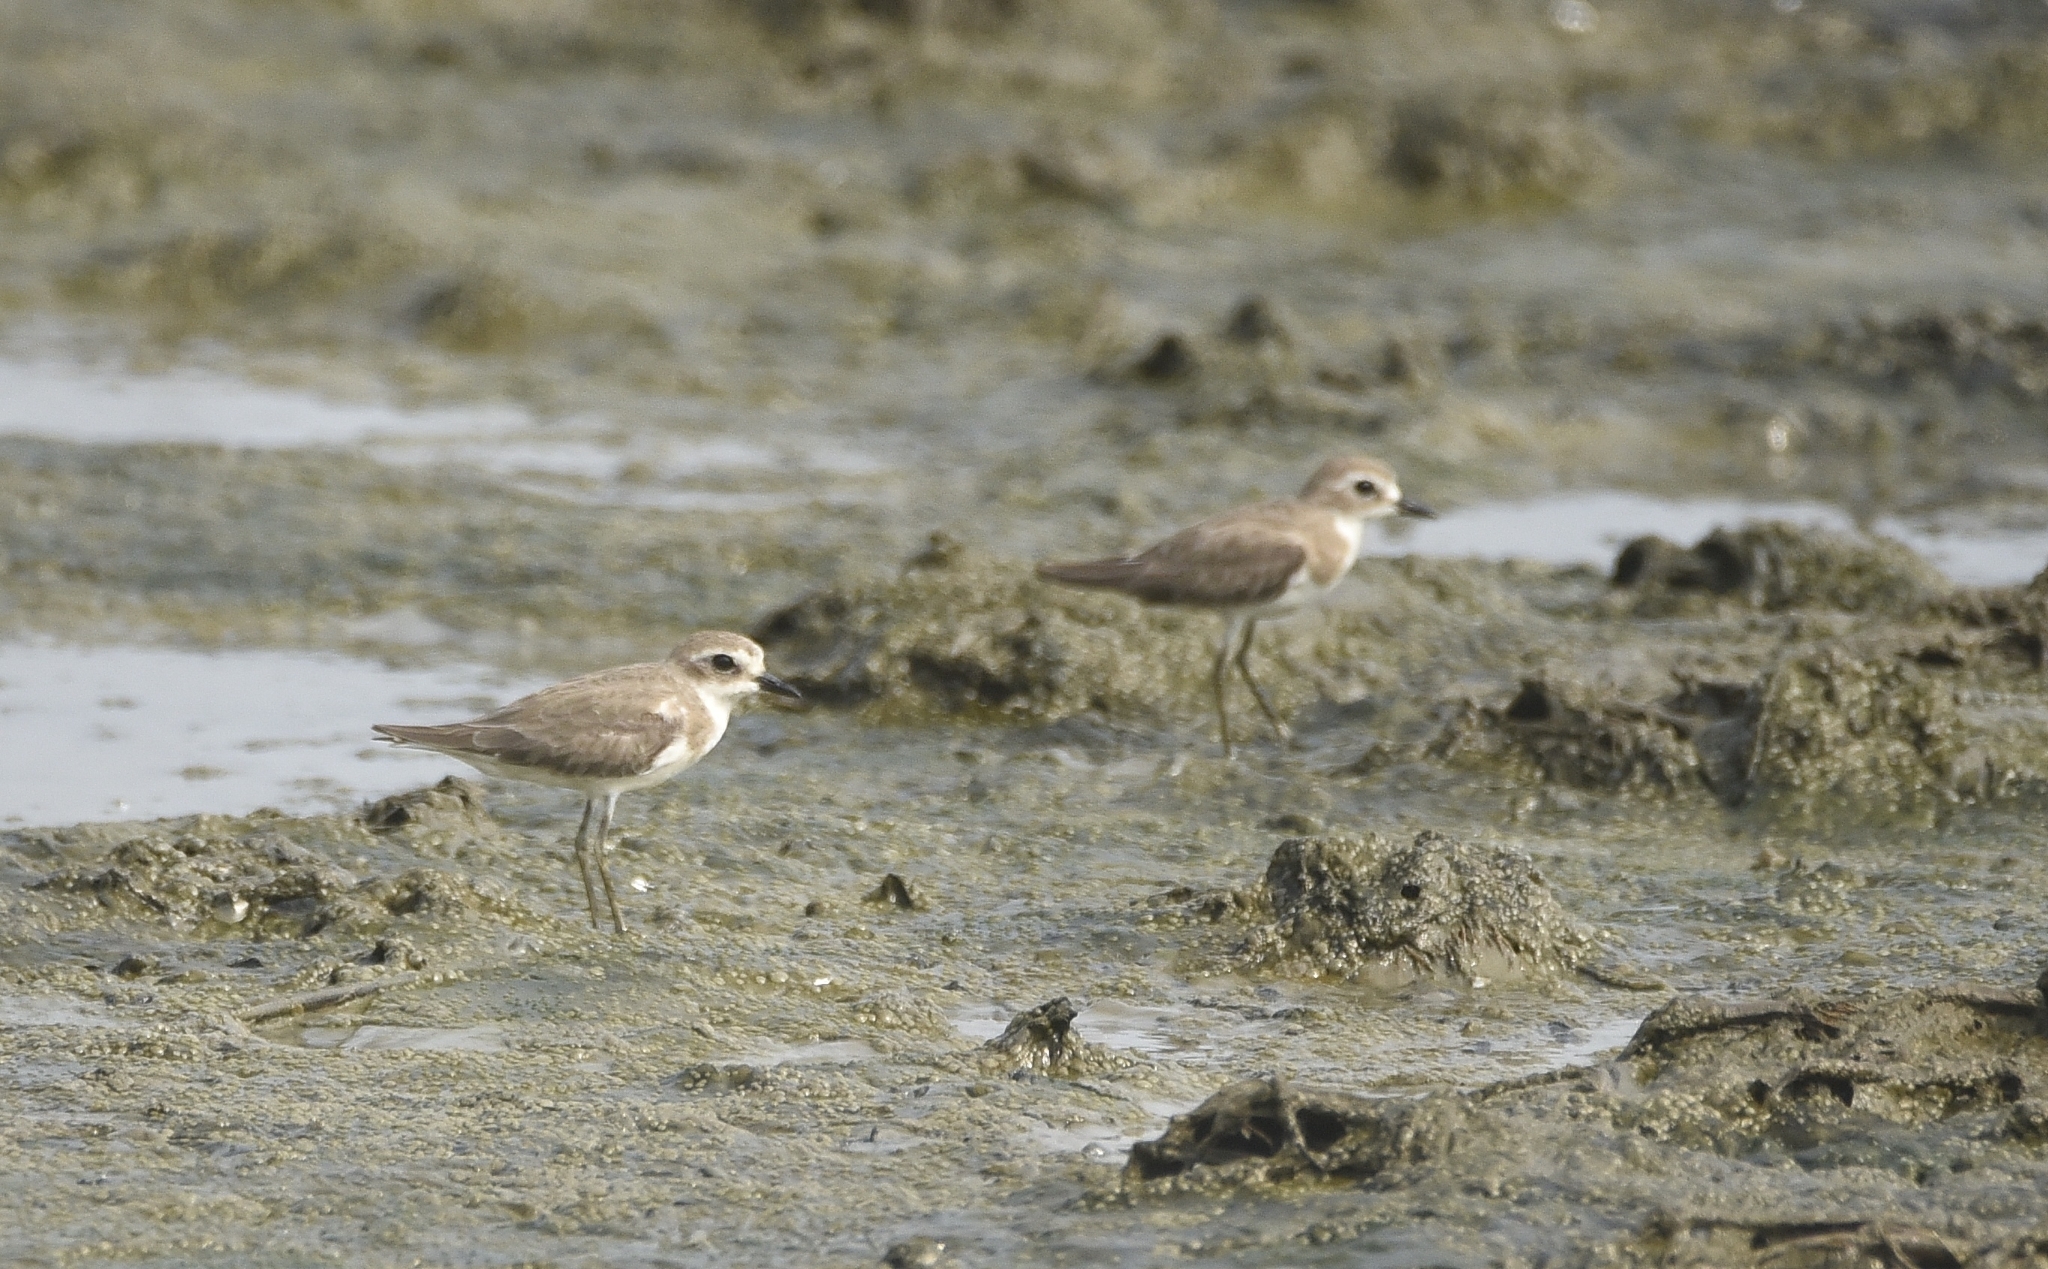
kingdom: Animalia
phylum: Chordata
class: Aves
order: Charadriiformes
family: Charadriidae
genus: Anarhynchus
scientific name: Anarhynchus
